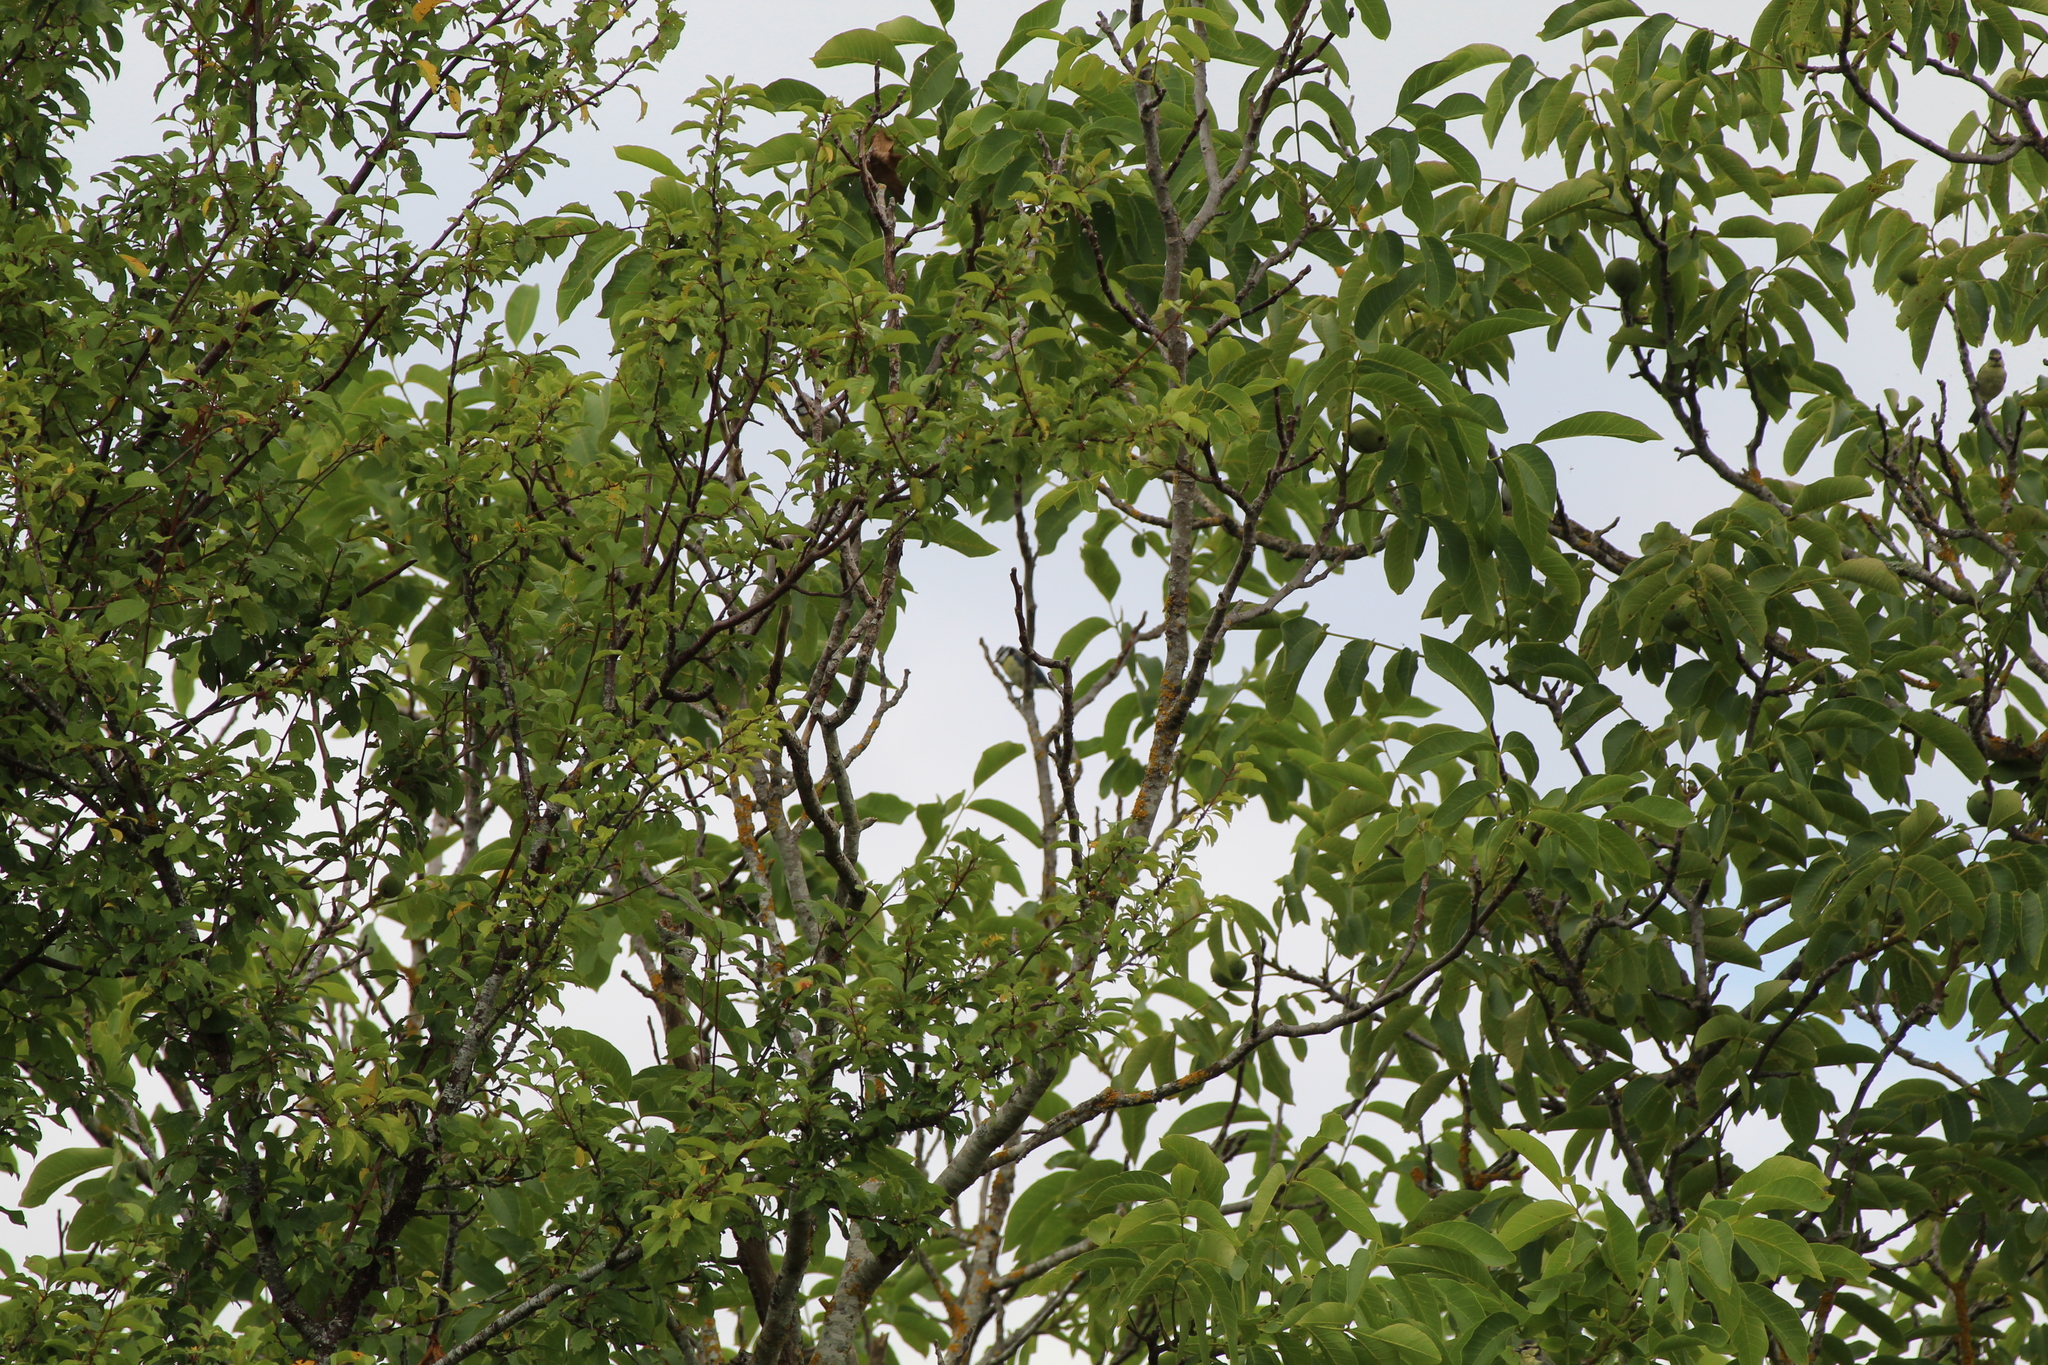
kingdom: Animalia
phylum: Chordata
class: Aves
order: Passeriformes
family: Paridae
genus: Cyanistes
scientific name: Cyanistes caeruleus
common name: Eurasian blue tit
